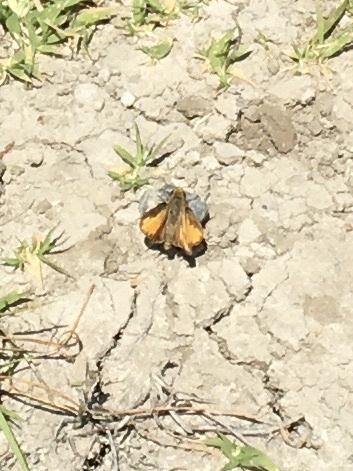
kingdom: Animalia
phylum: Arthropoda
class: Insecta
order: Lepidoptera
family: Hesperiidae
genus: Hylephila
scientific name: Hylephila phyleus
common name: Fiery skipper
